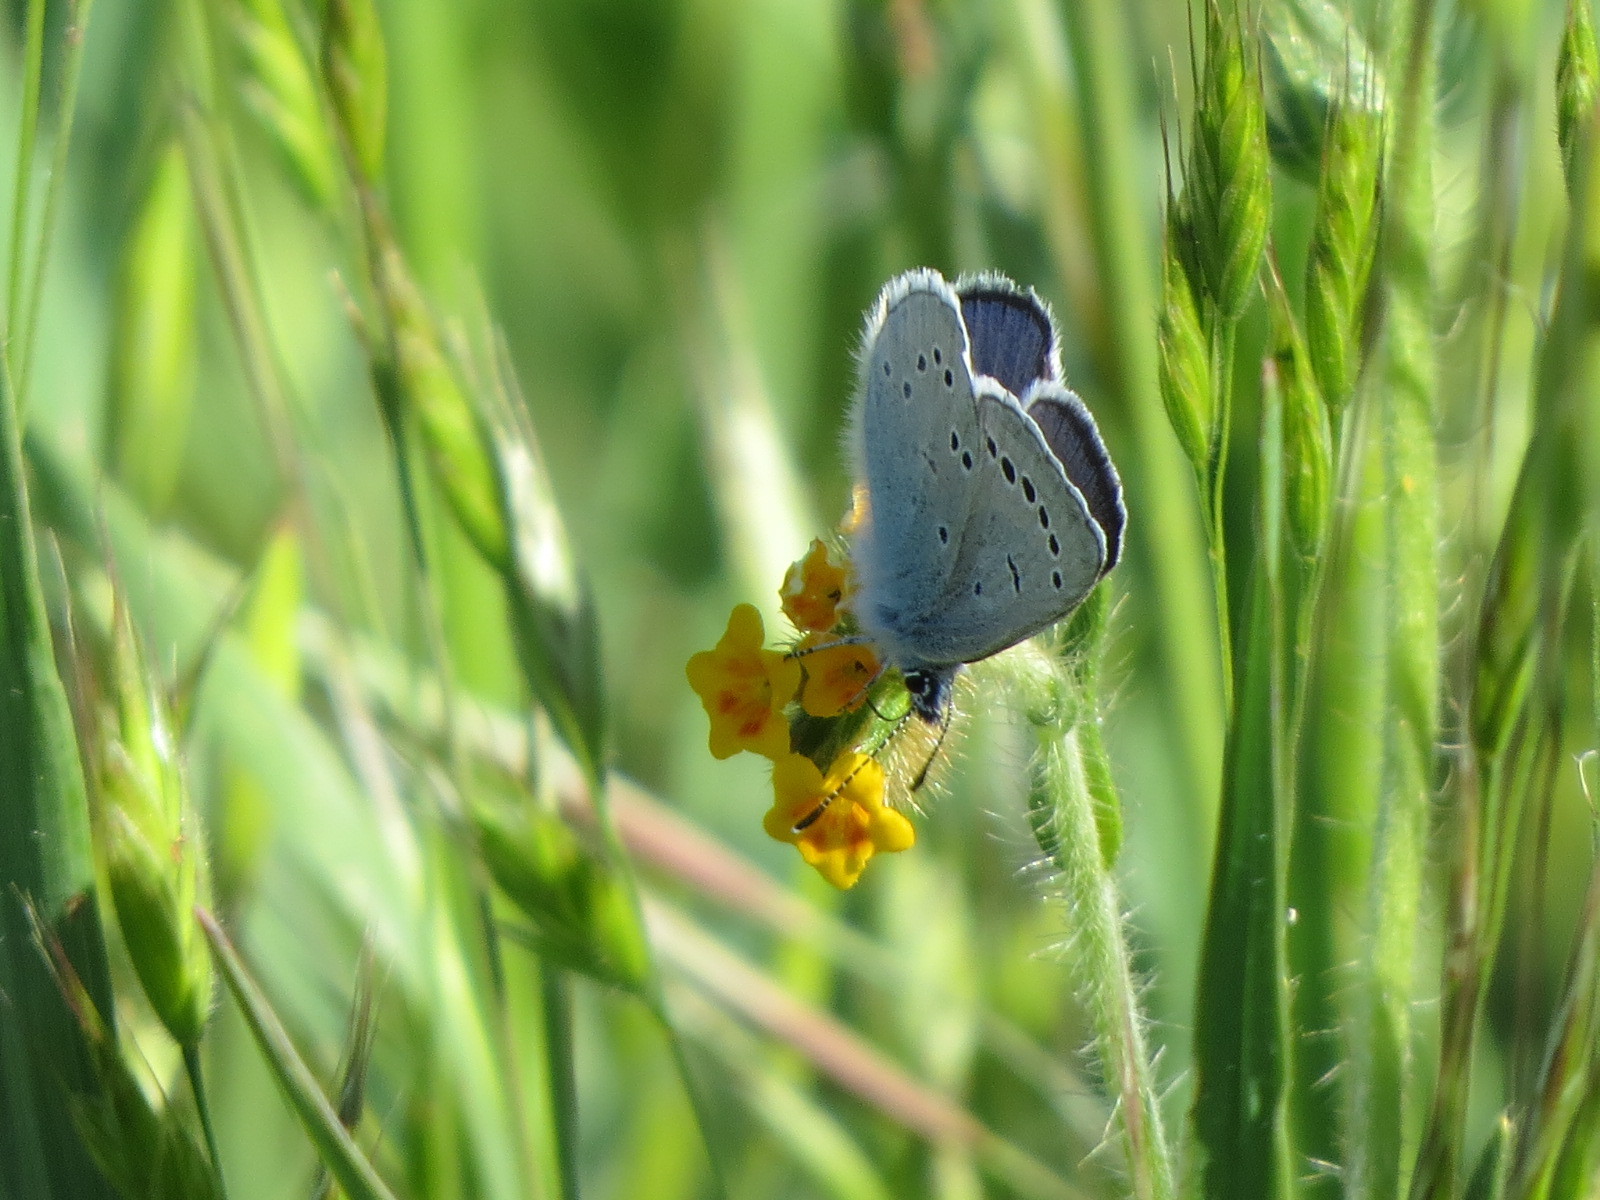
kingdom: Animalia
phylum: Arthropoda
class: Insecta
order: Lepidoptera
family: Lycaenidae
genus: Glaucopsyche
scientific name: Glaucopsyche lygdamus
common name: Silvery blue
